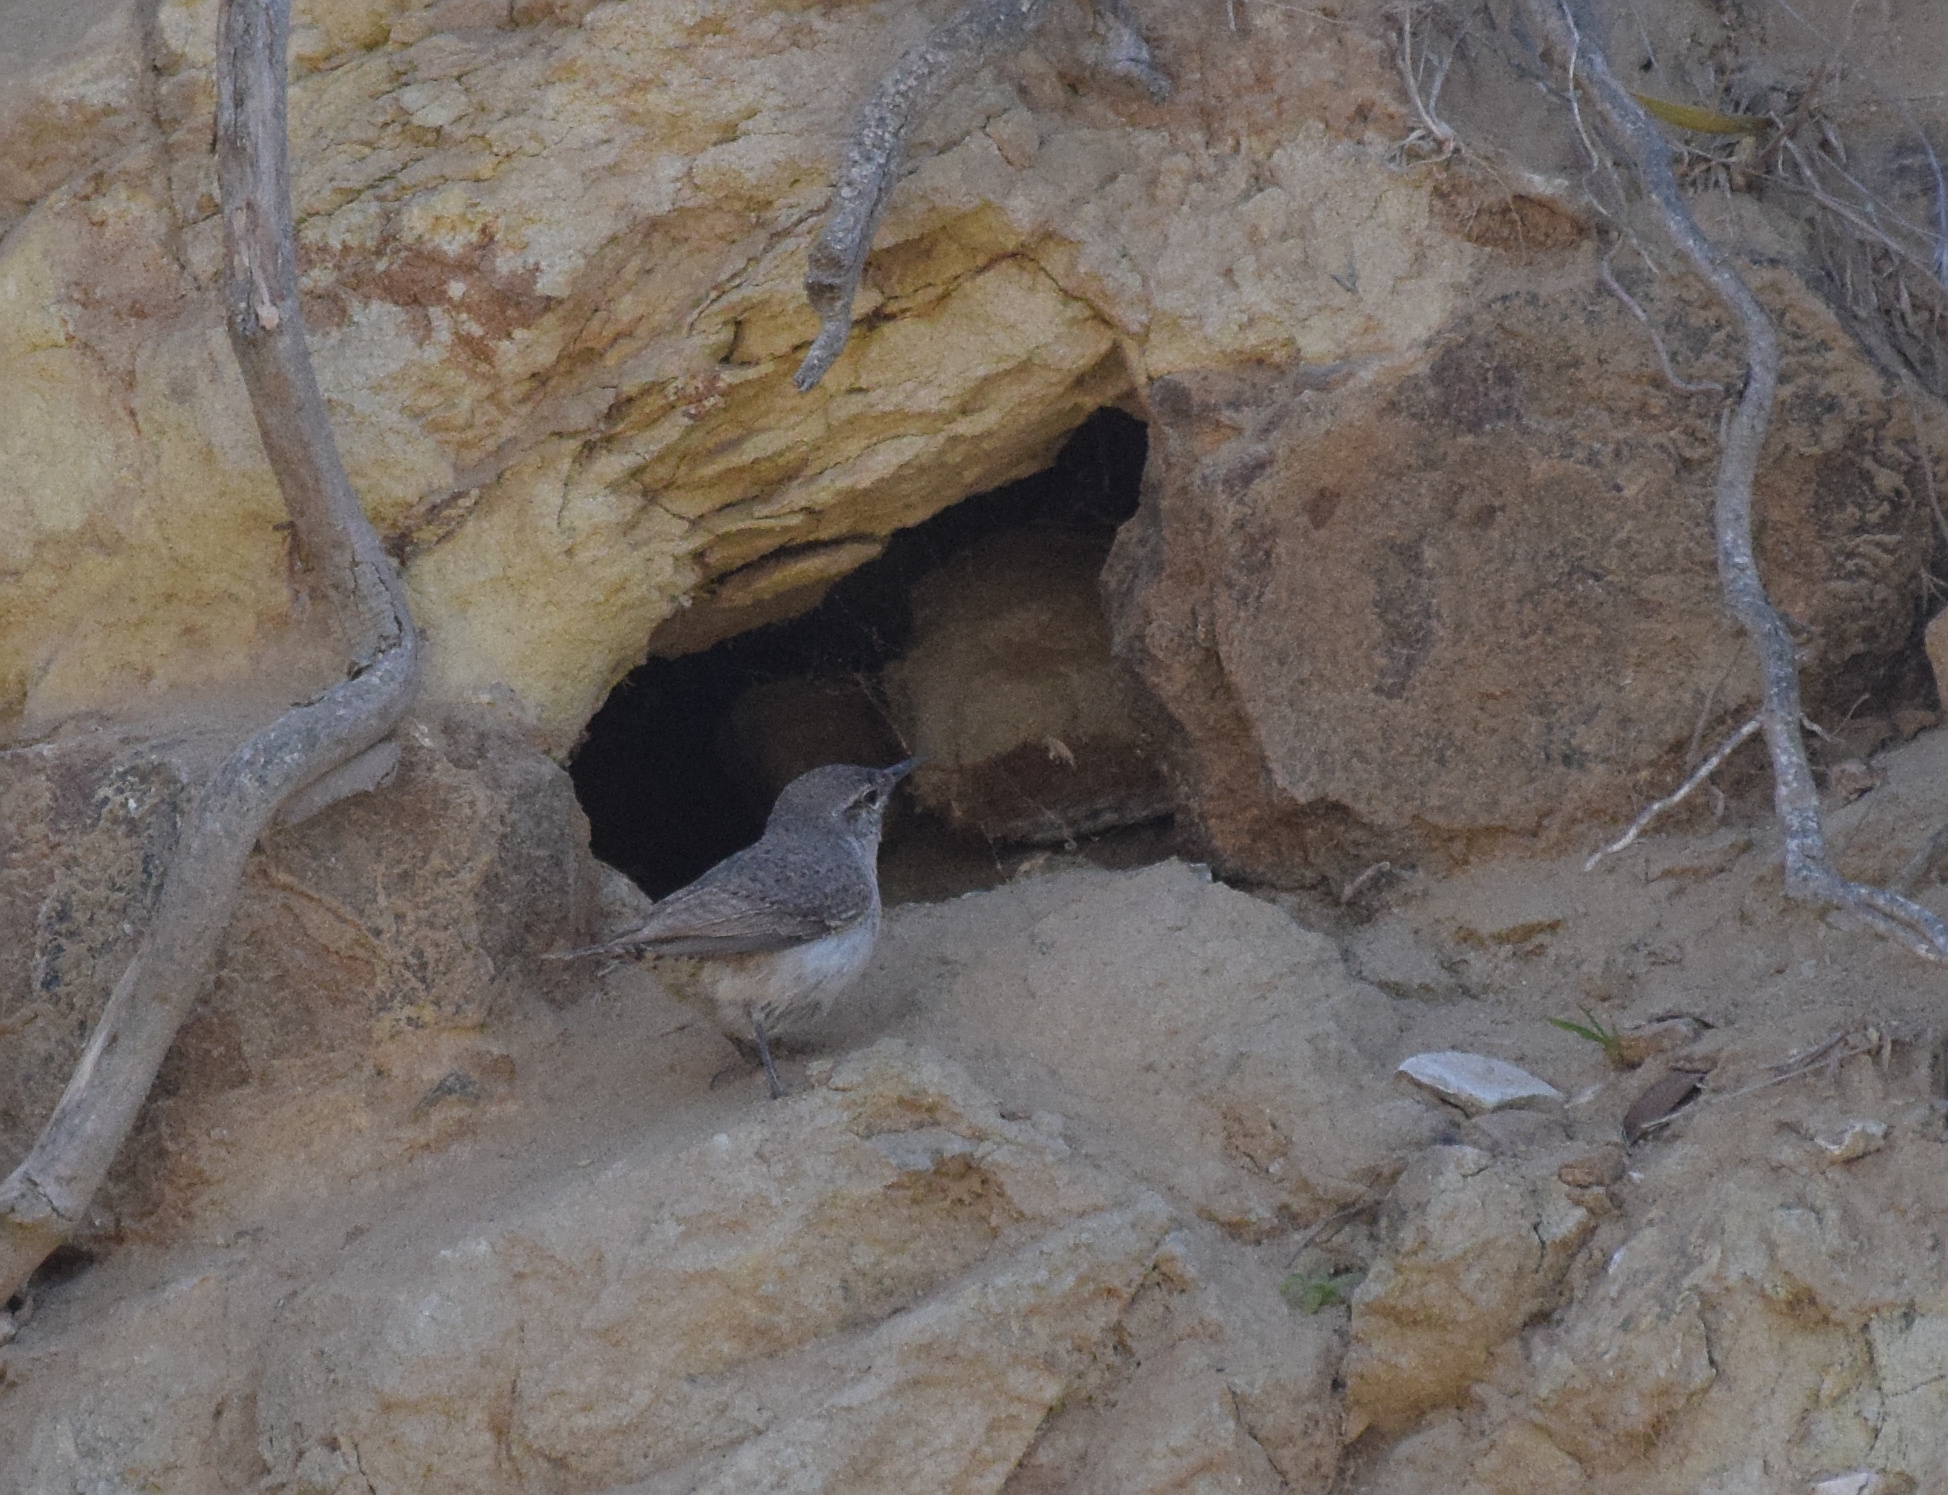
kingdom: Animalia
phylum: Chordata
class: Aves
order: Passeriformes
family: Troglodytidae
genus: Salpinctes
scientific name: Salpinctes obsoletus
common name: Rock wren
